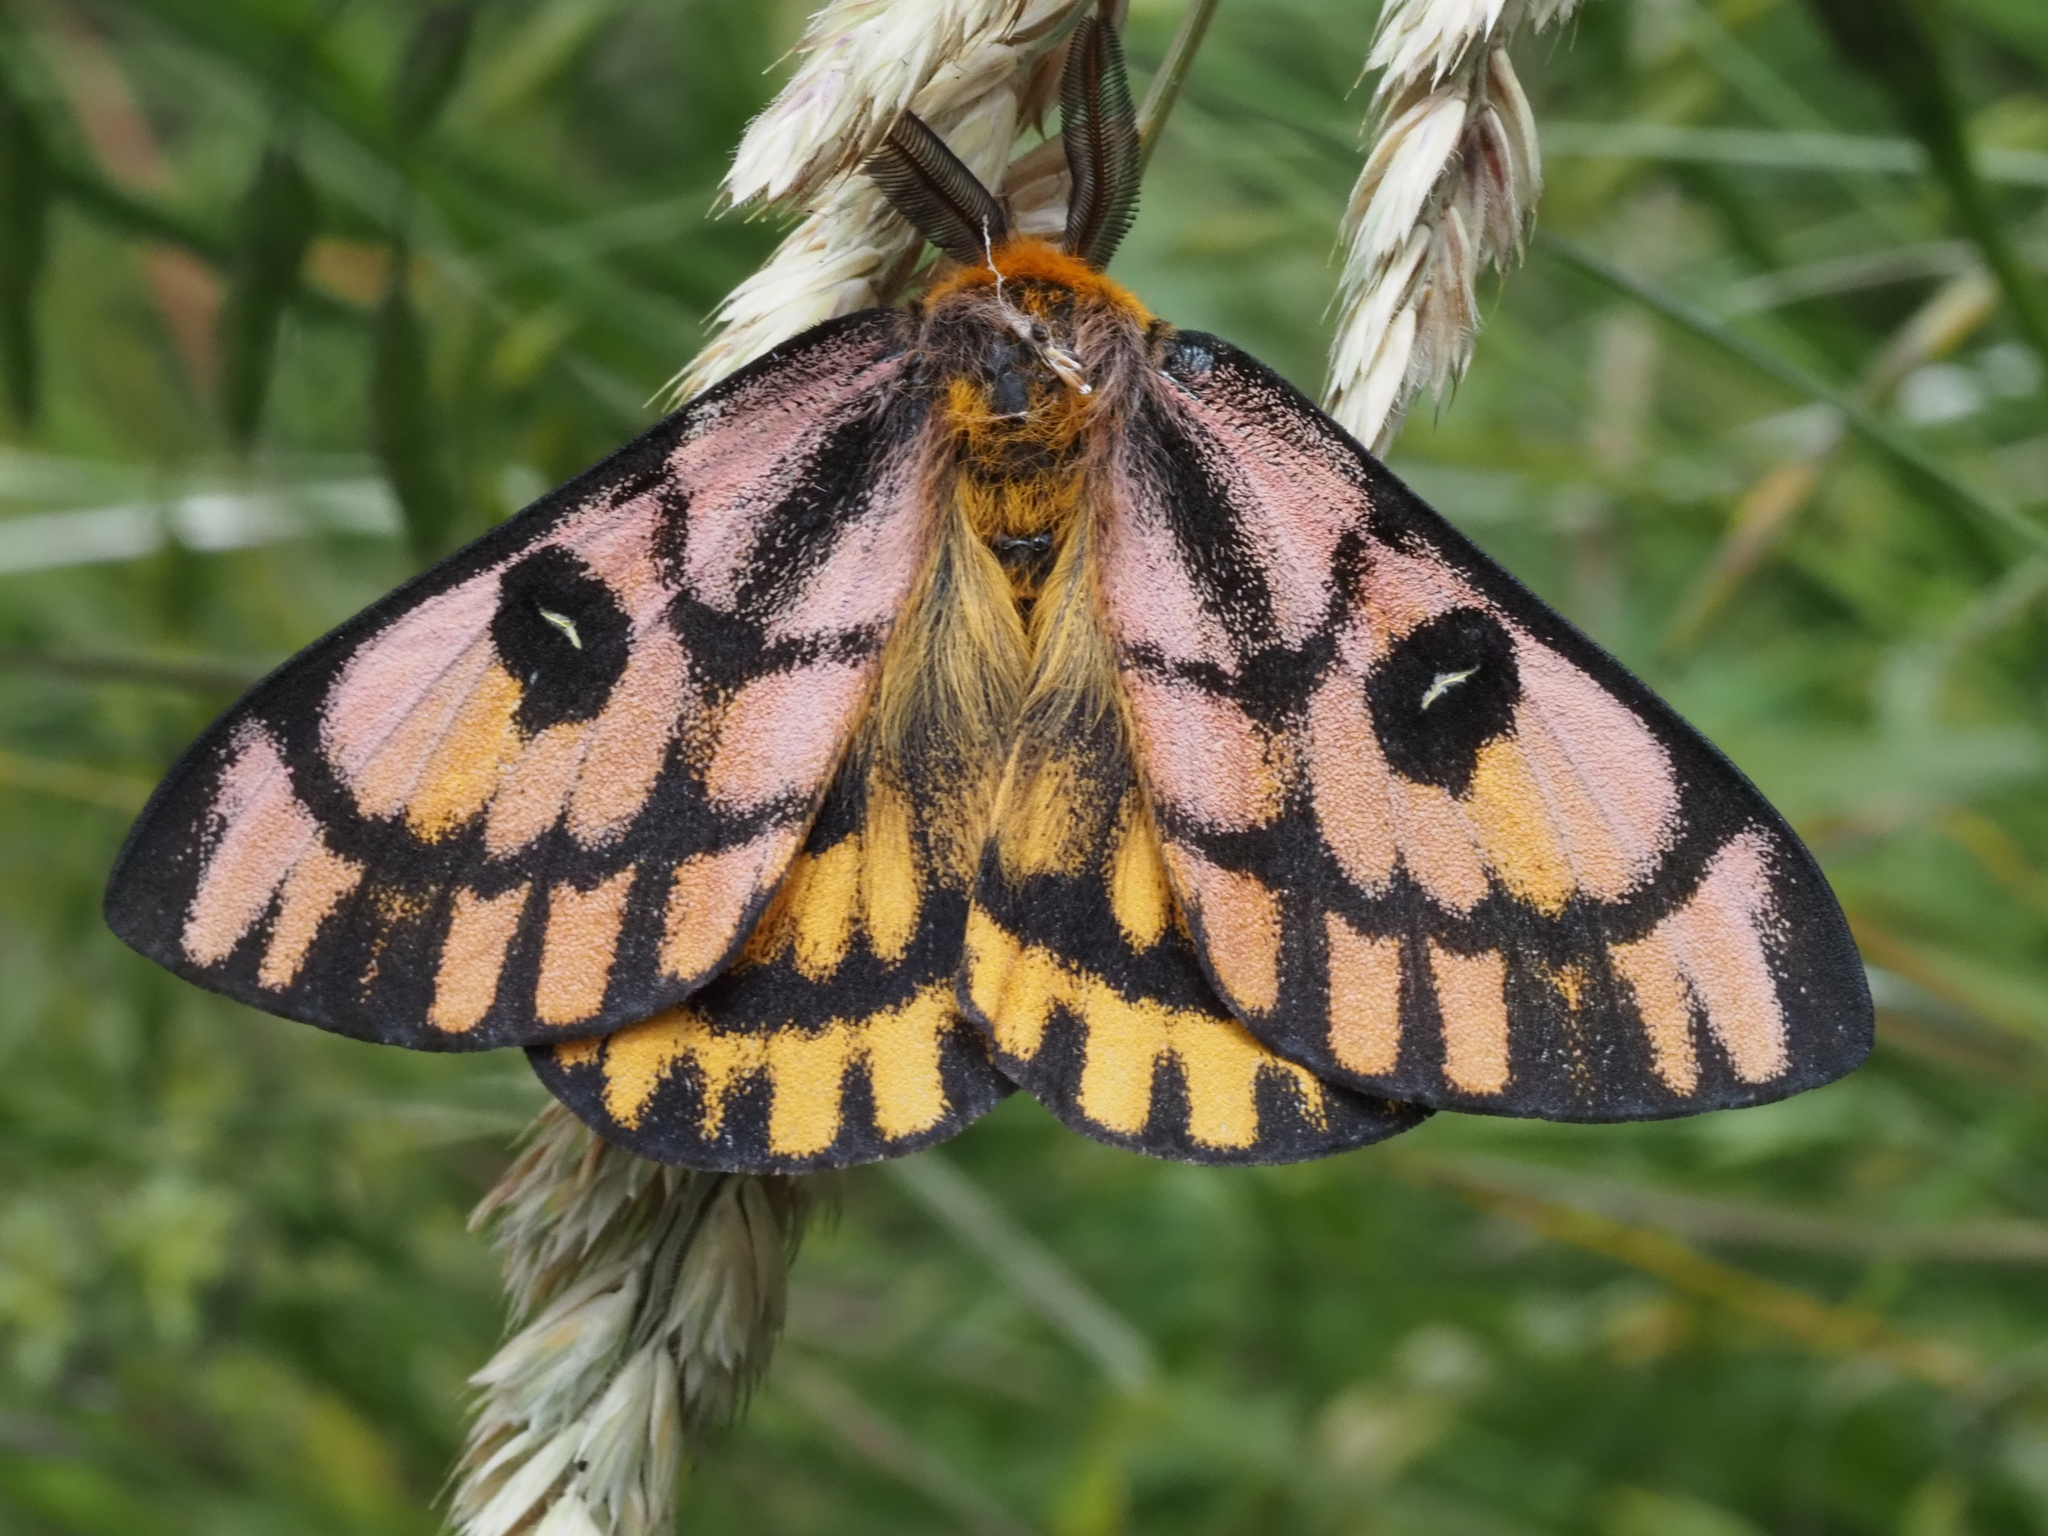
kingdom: Animalia
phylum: Arthropoda
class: Insecta
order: Lepidoptera
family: Saturniidae
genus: Hemileuca
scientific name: Hemileuca eglanterina
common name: Western sheepmoth
